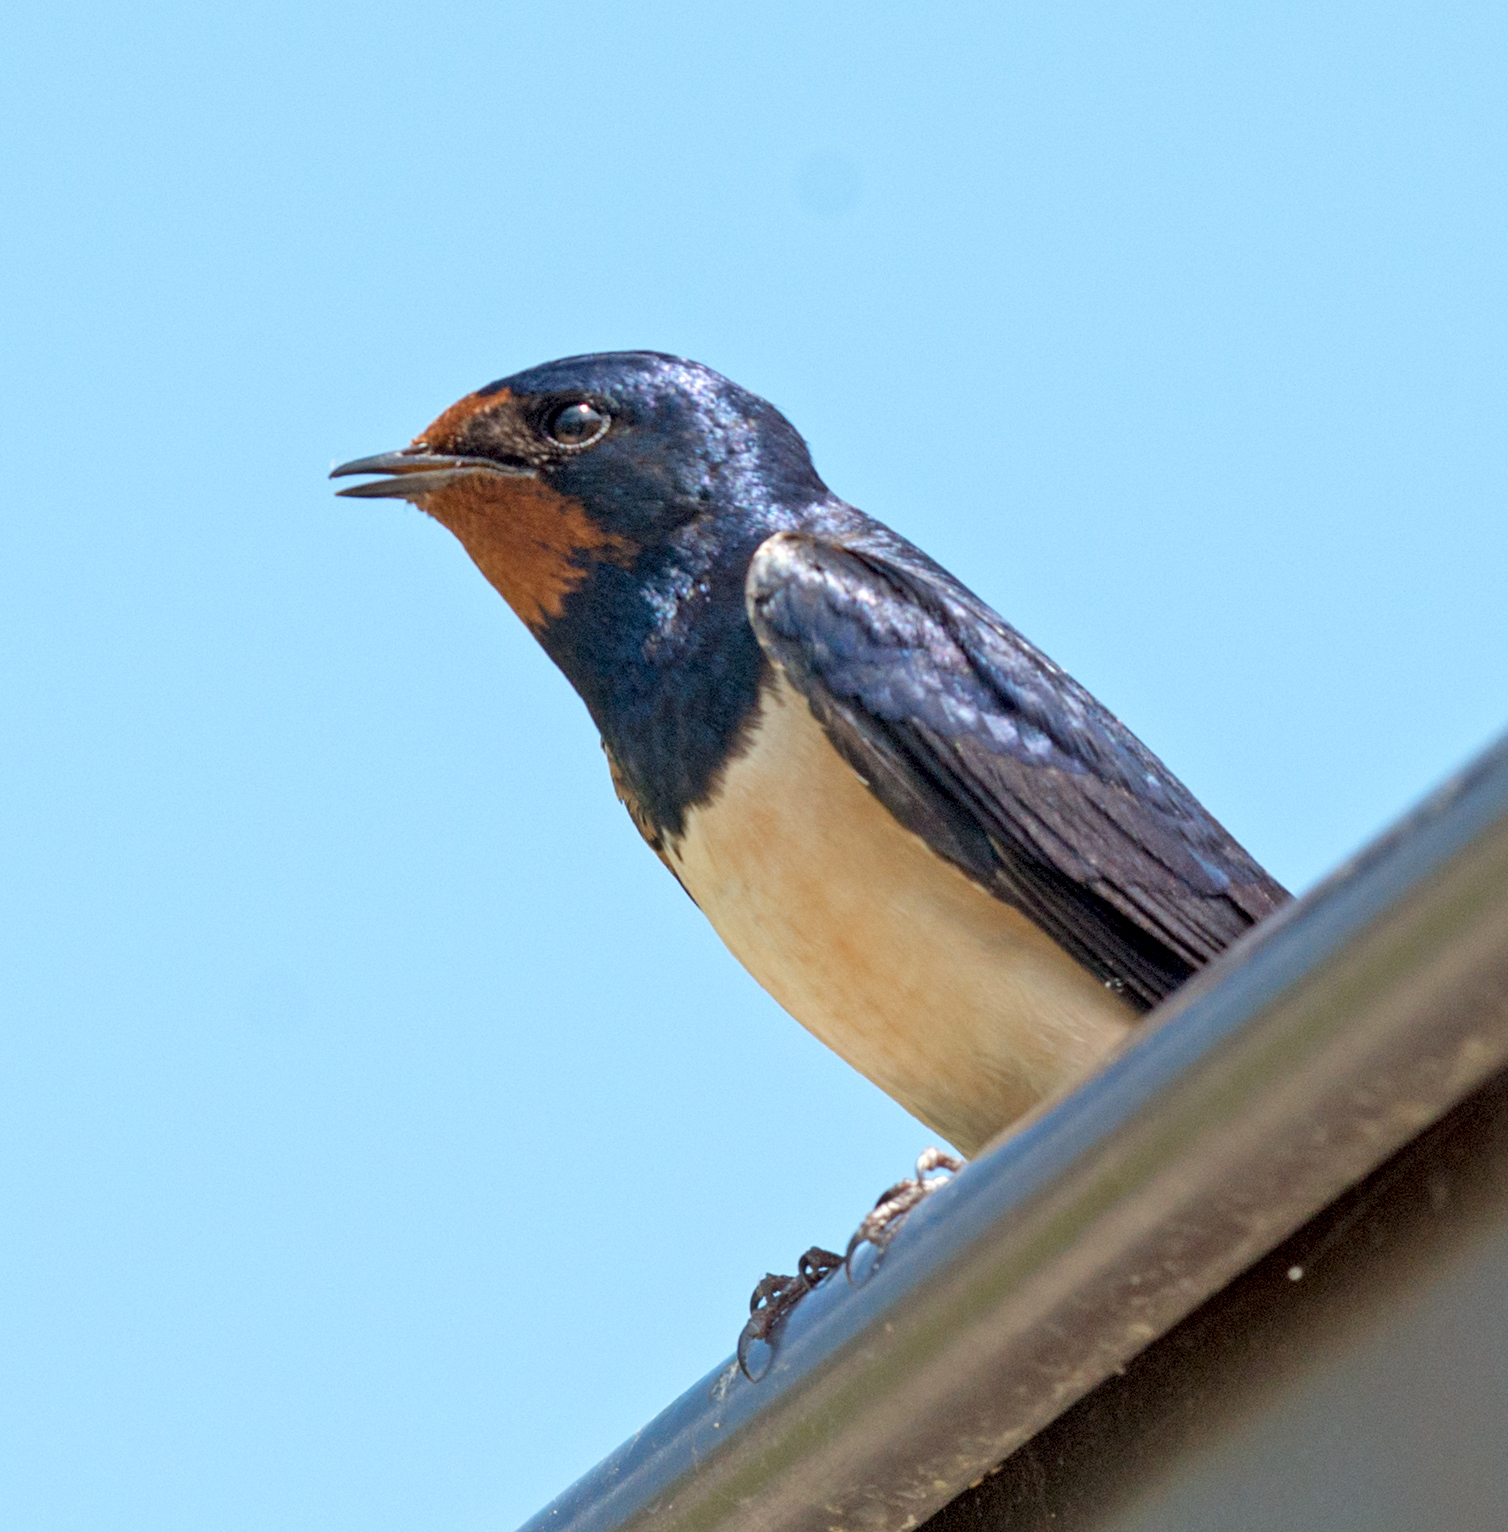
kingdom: Animalia
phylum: Chordata
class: Aves
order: Passeriformes
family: Hirundinidae
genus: Hirundo
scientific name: Hirundo rustica
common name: Barn swallow
